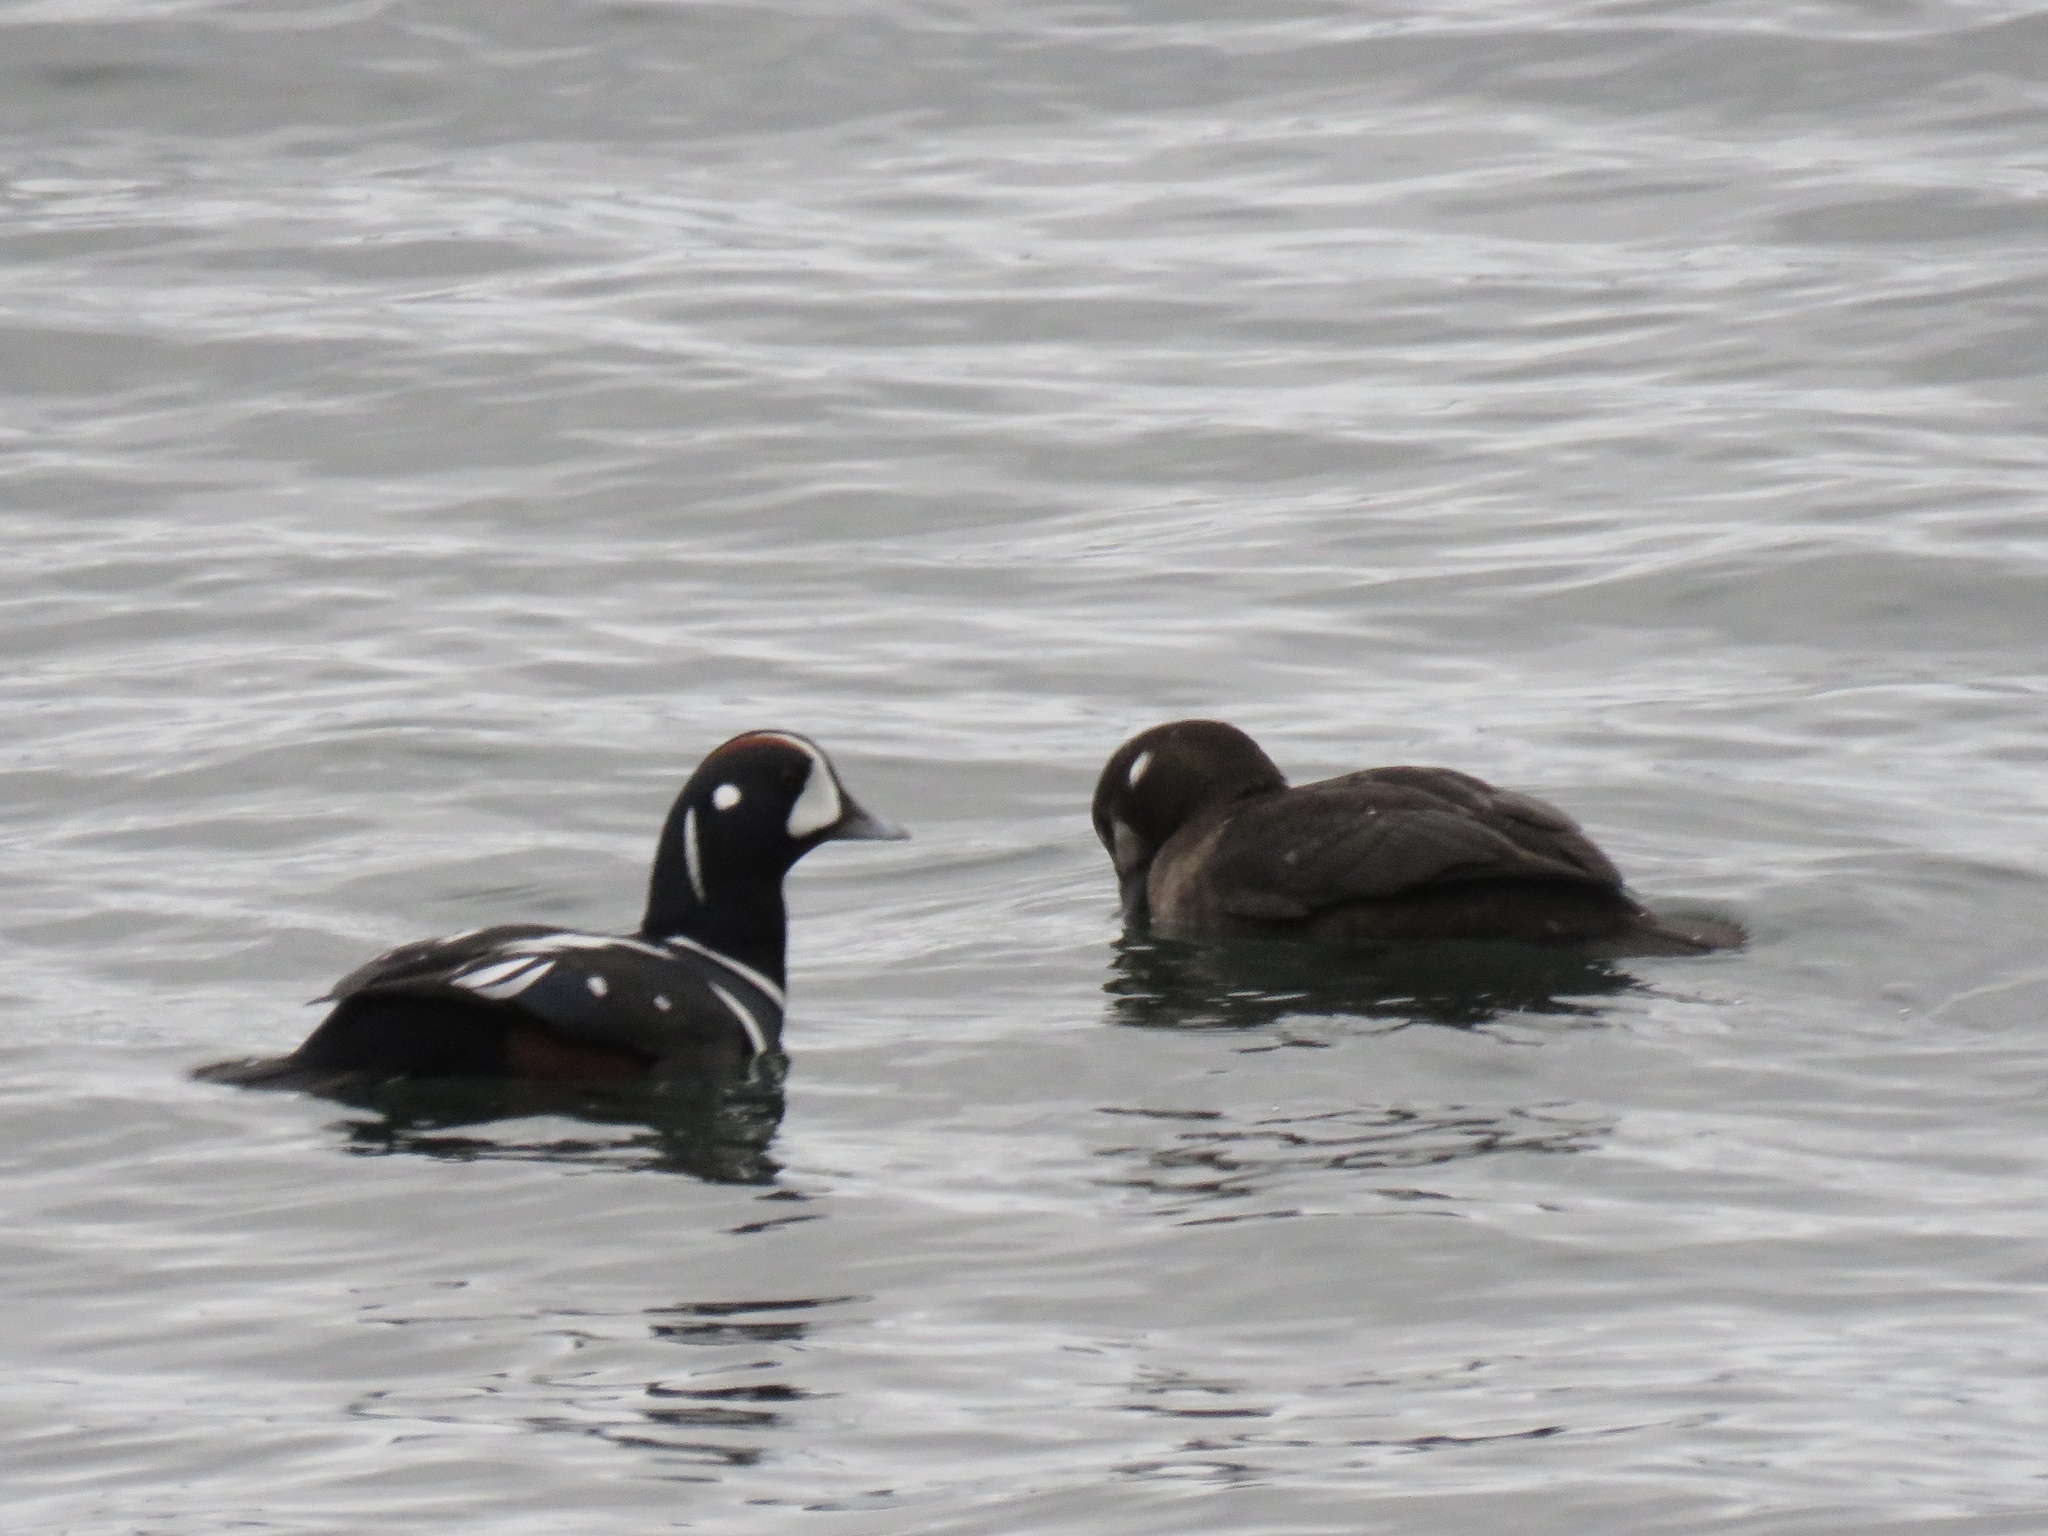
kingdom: Animalia
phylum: Chordata
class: Aves
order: Anseriformes
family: Anatidae
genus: Histrionicus
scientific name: Histrionicus histrionicus
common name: Harlequin duck
